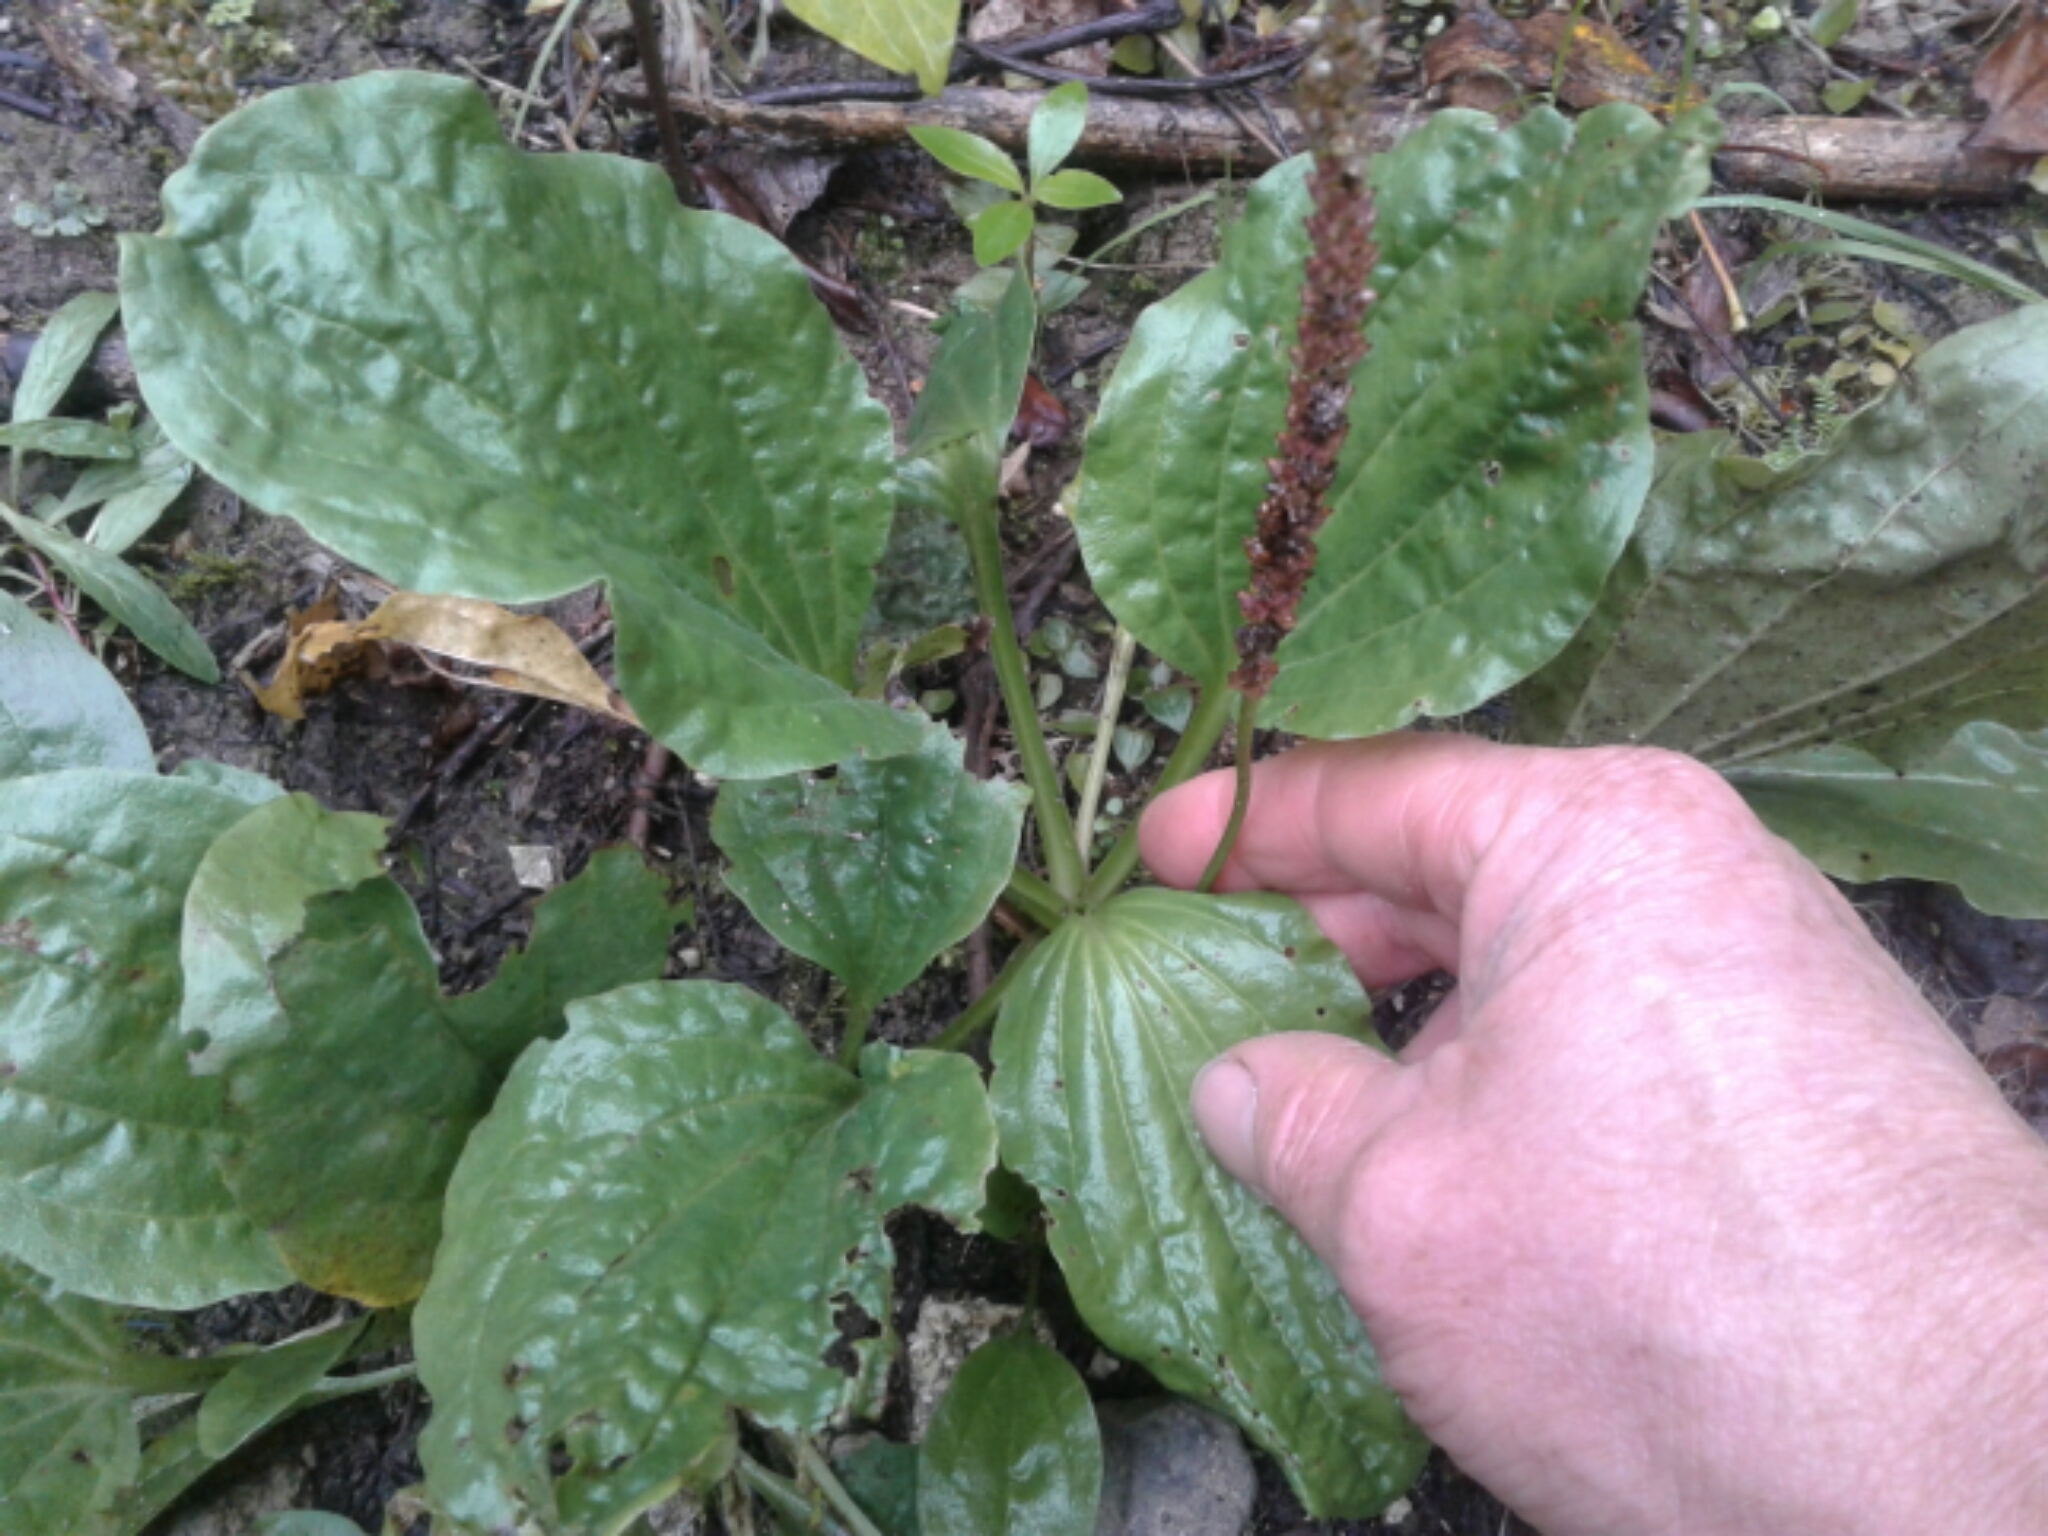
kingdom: Plantae
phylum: Tracheophyta
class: Magnoliopsida
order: Lamiales
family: Plantaginaceae
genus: Plantago
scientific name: Plantago major
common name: Common plantain
